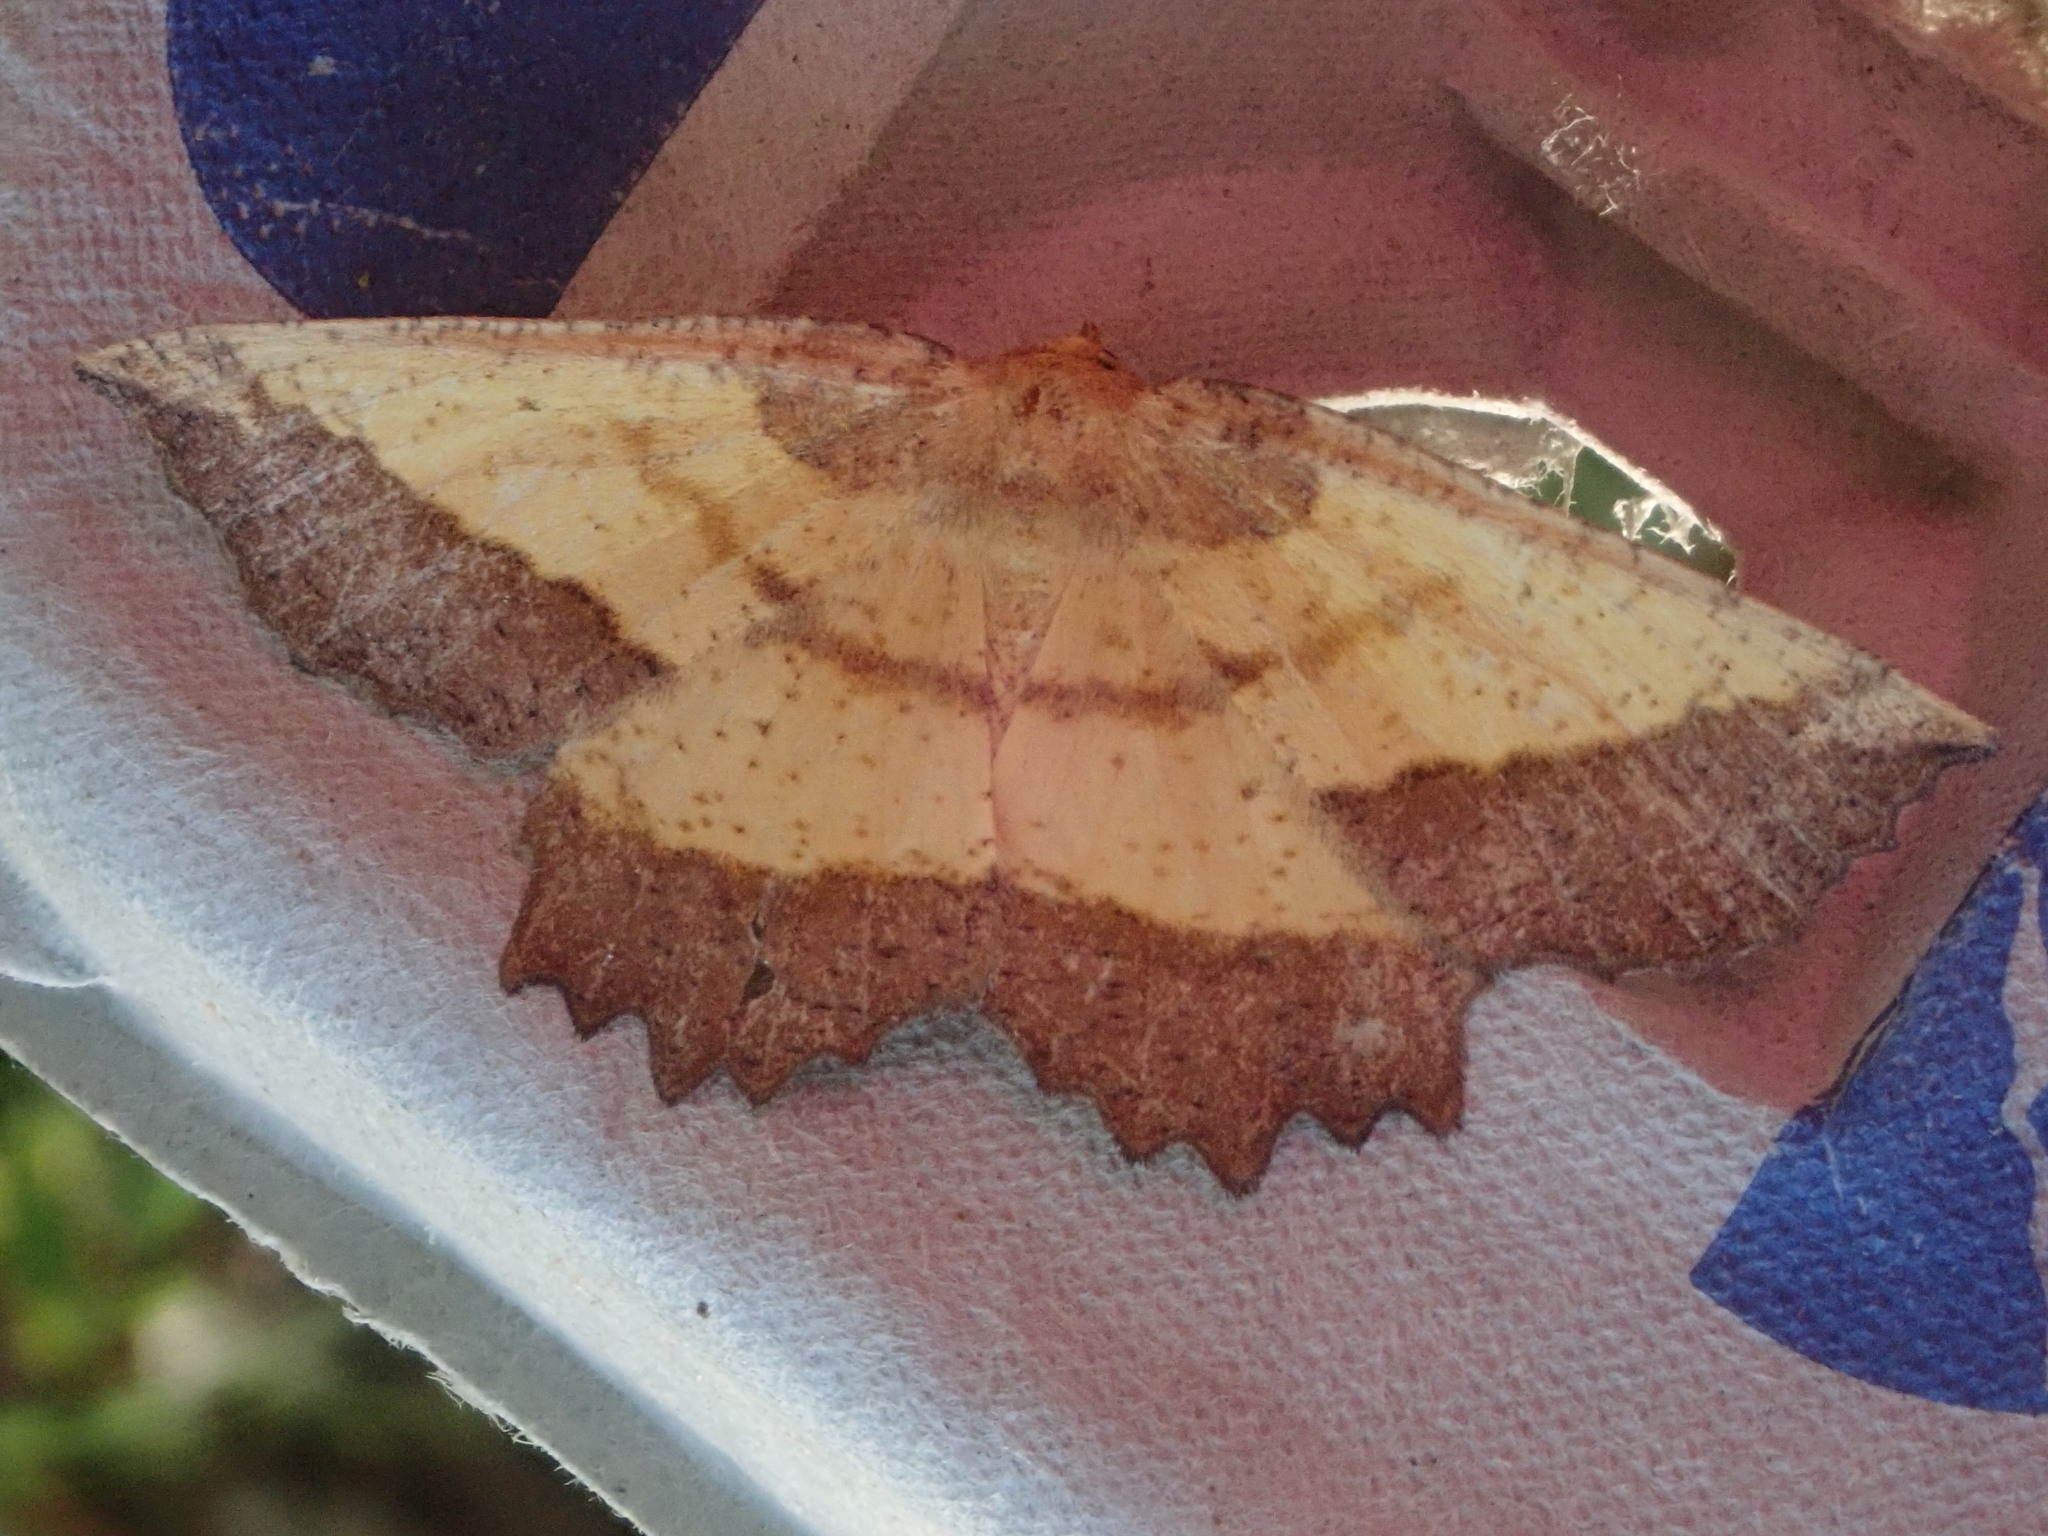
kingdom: Animalia
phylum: Arthropoda
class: Insecta
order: Lepidoptera
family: Geometridae
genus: Euchlaena
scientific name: Euchlaena serrata
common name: Saw wing
